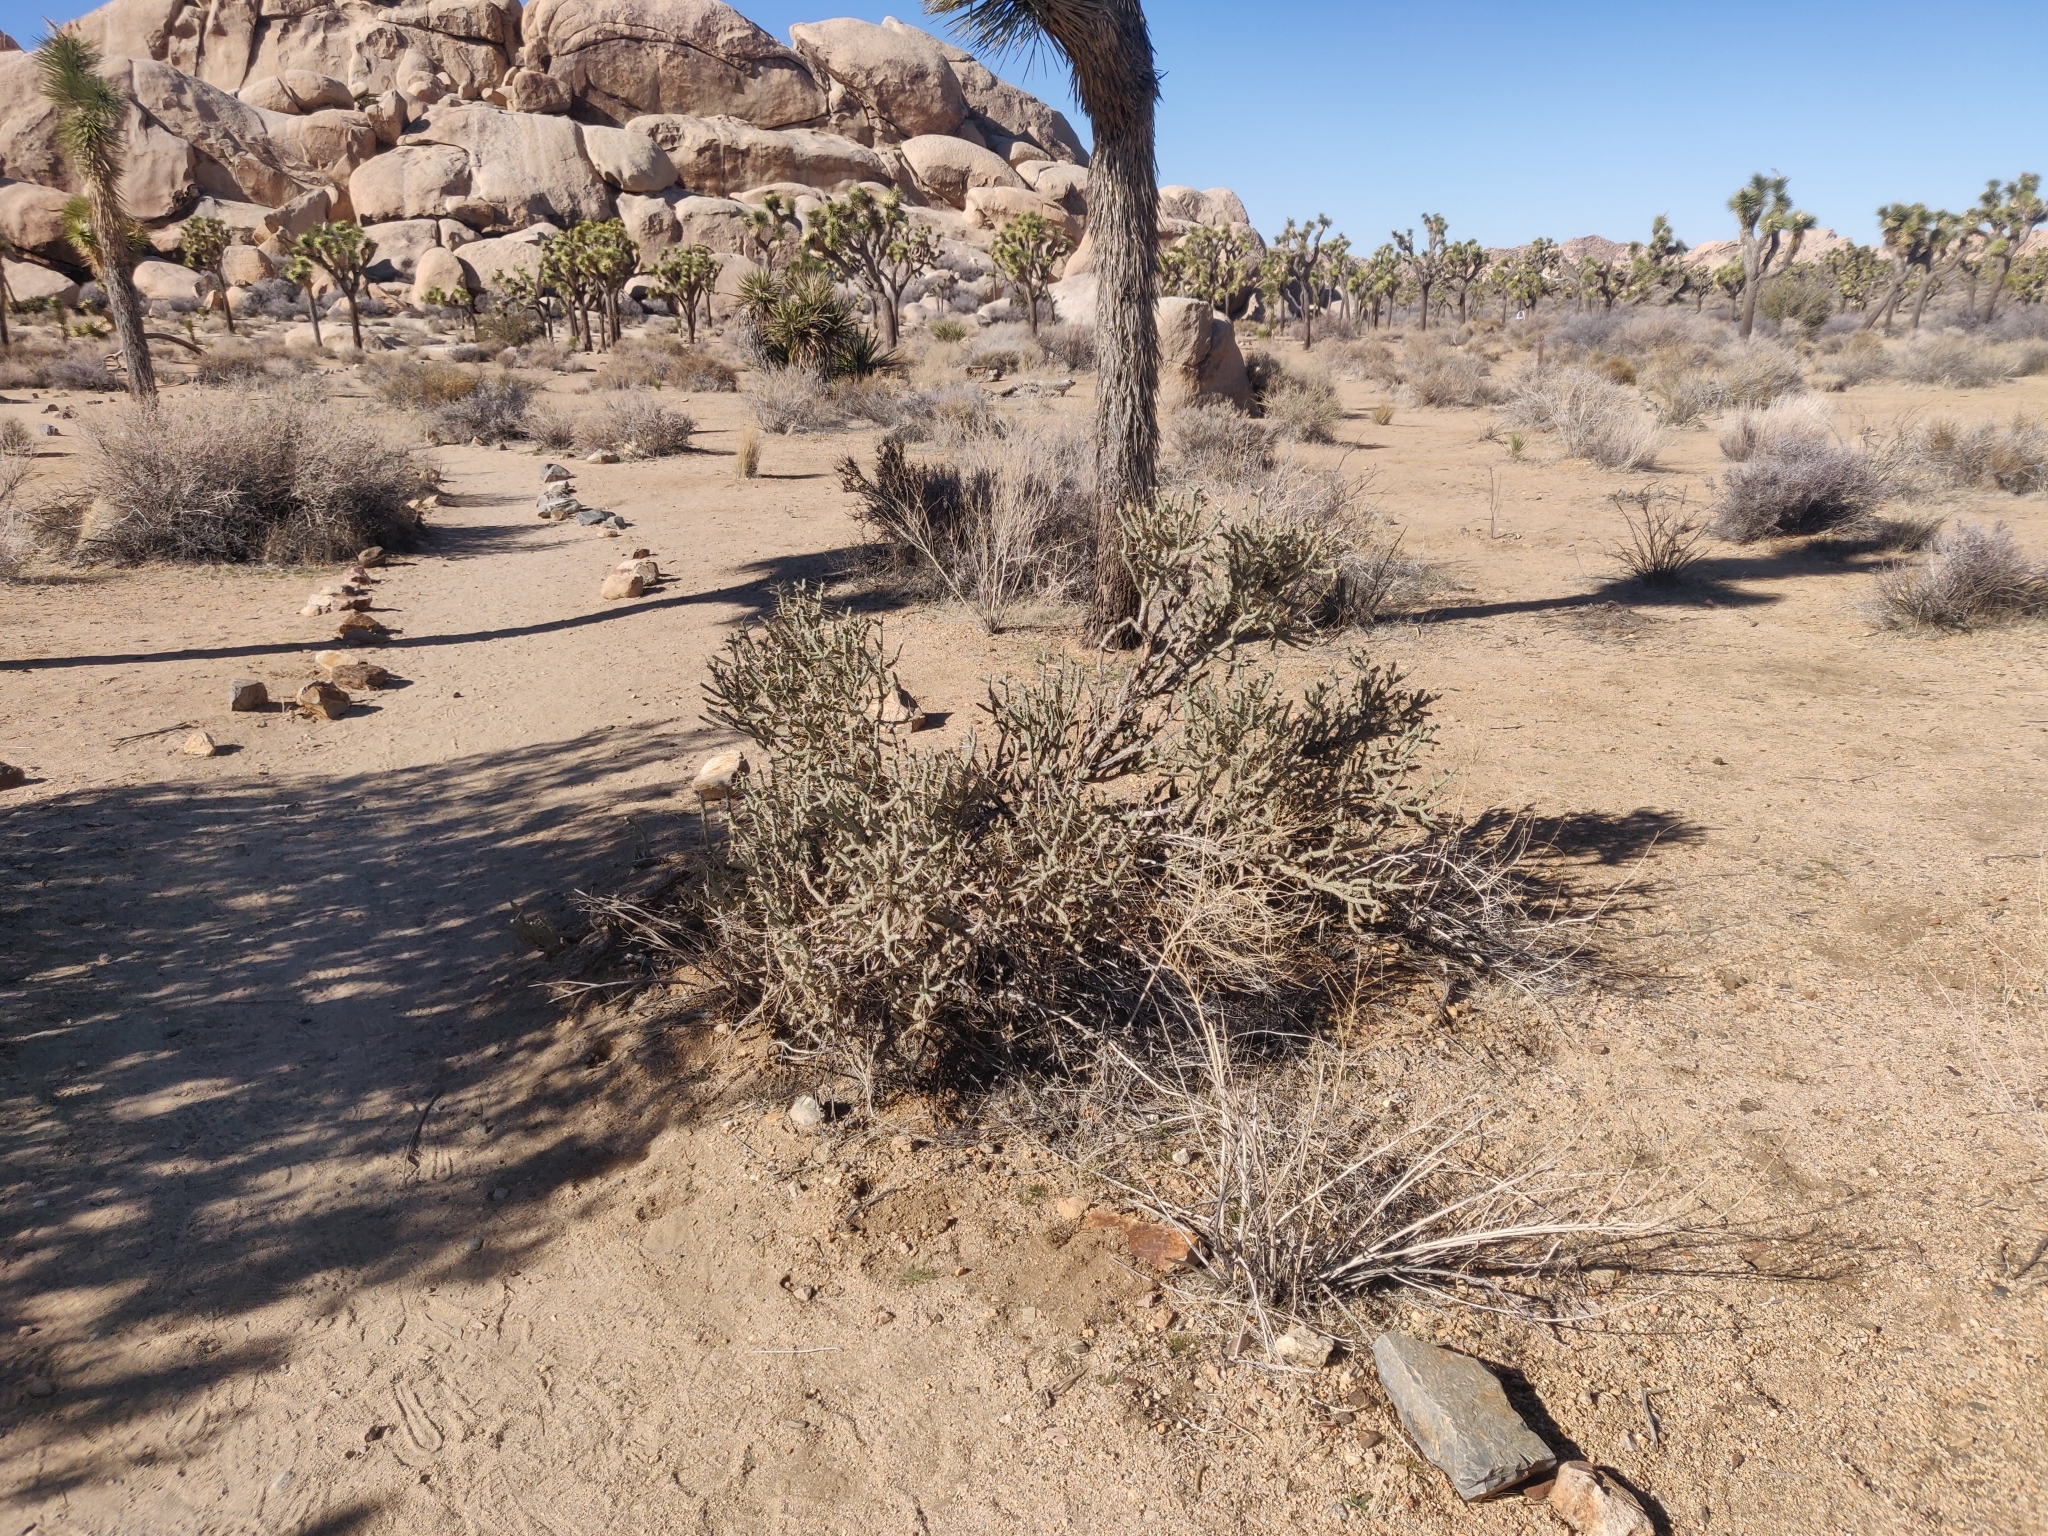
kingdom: Plantae
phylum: Tracheophyta
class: Magnoliopsida
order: Caryophyllales
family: Cactaceae
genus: Cylindropuntia
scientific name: Cylindropuntia ramosissima
